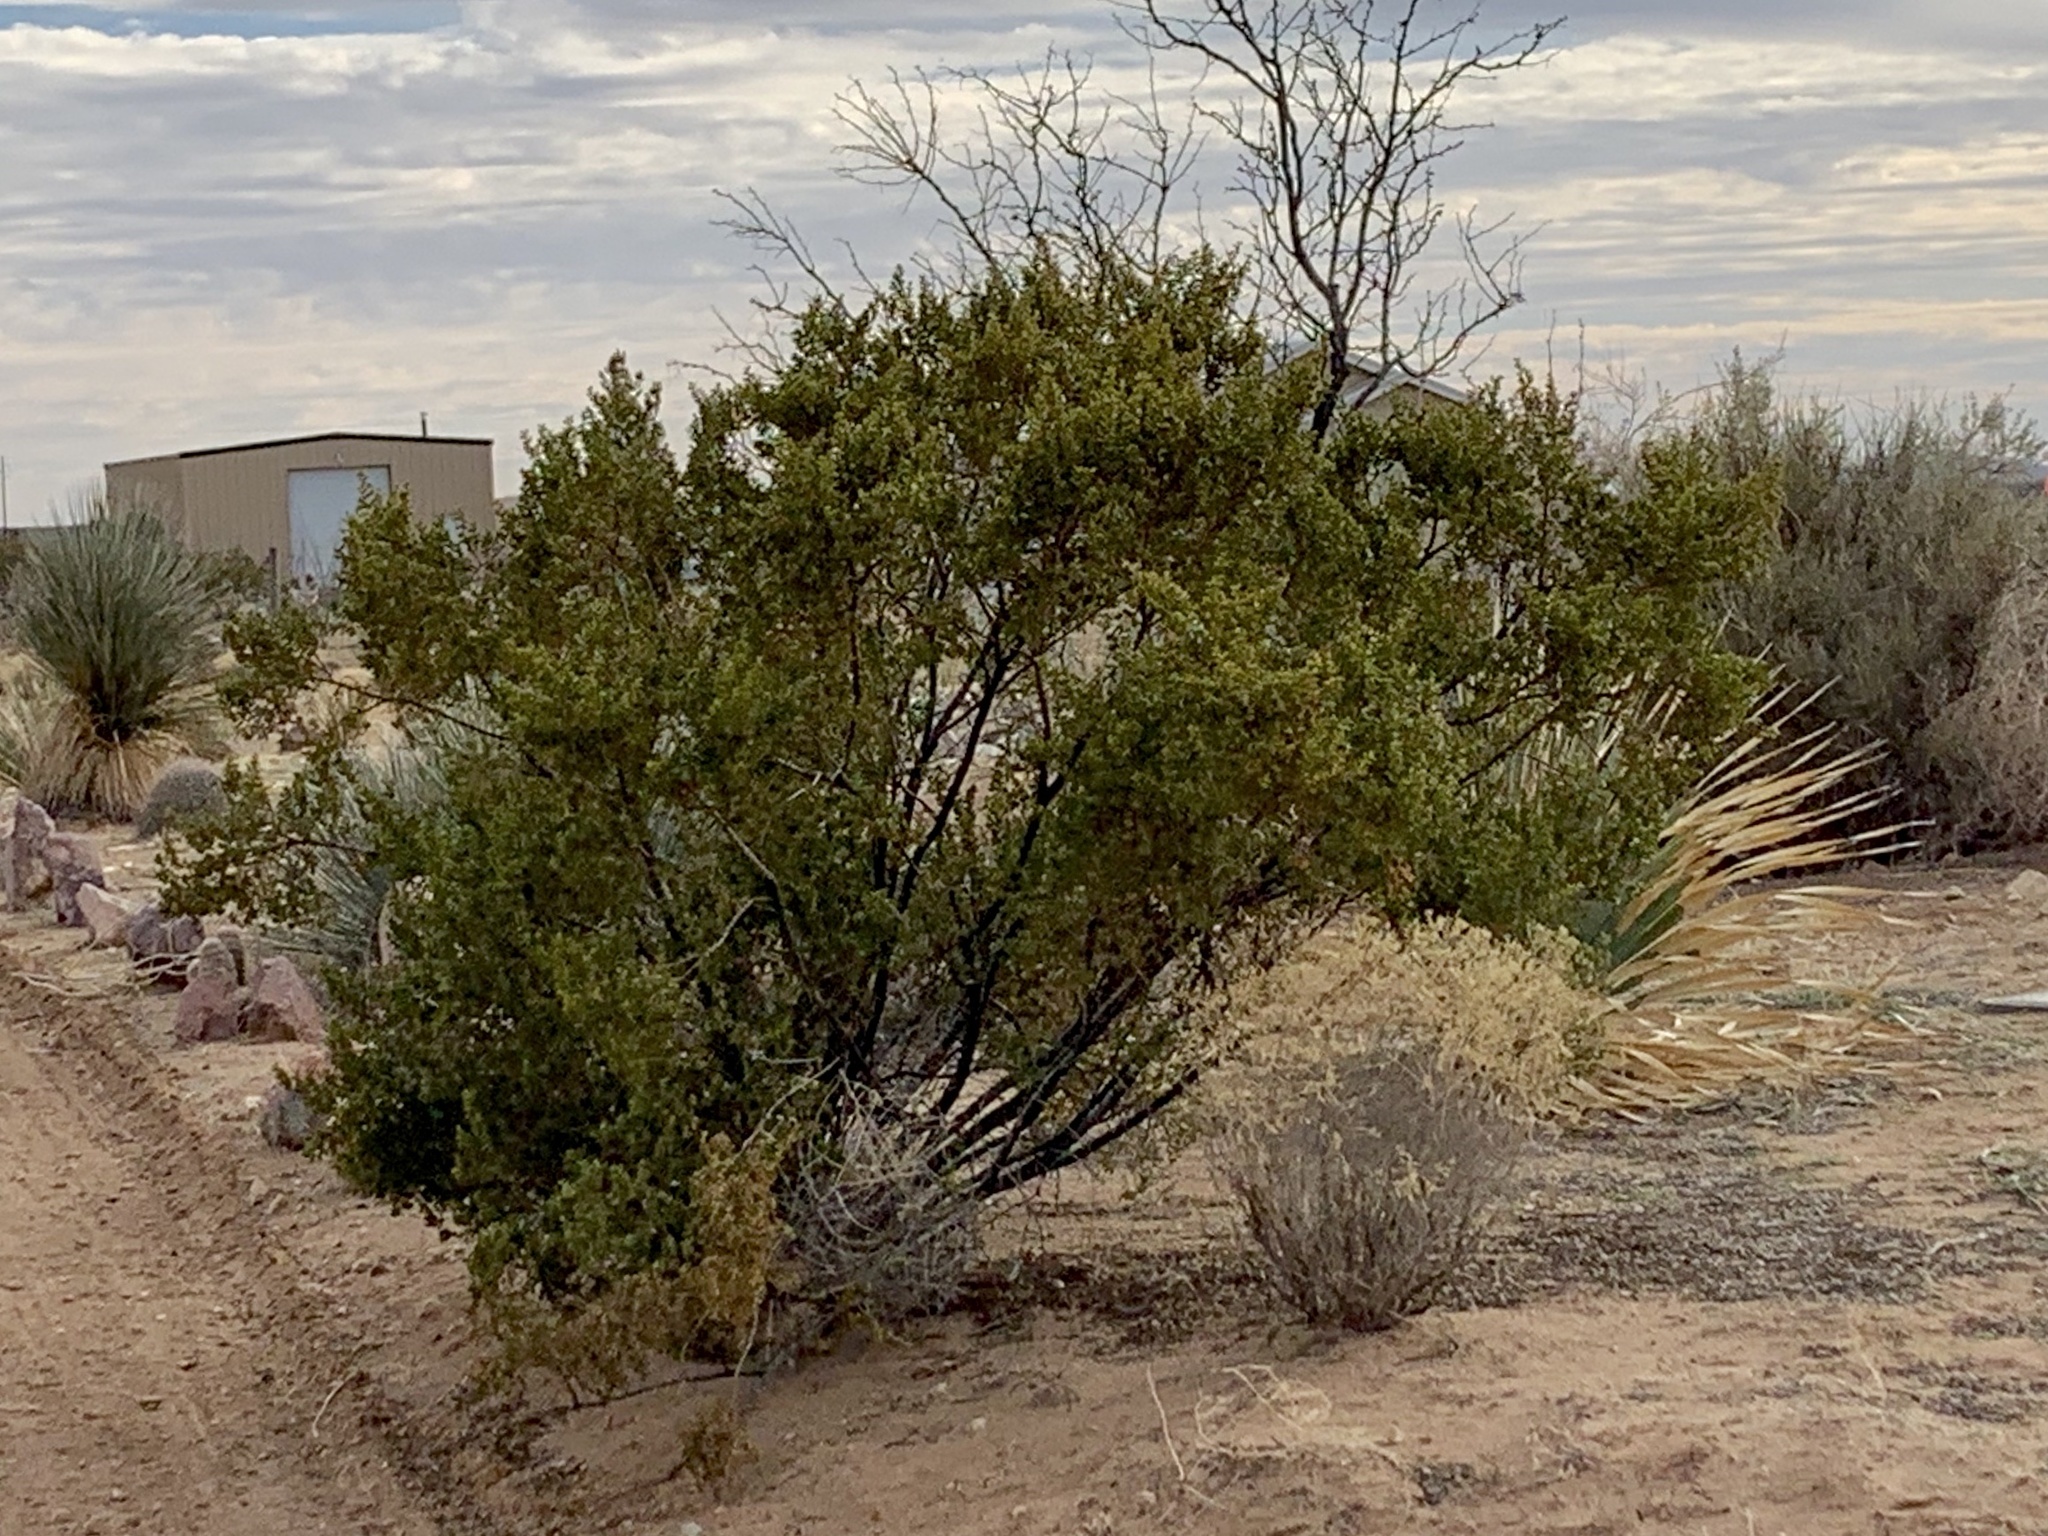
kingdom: Plantae
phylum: Tracheophyta
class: Magnoliopsida
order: Zygophyllales
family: Zygophyllaceae
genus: Larrea
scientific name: Larrea tridentata
